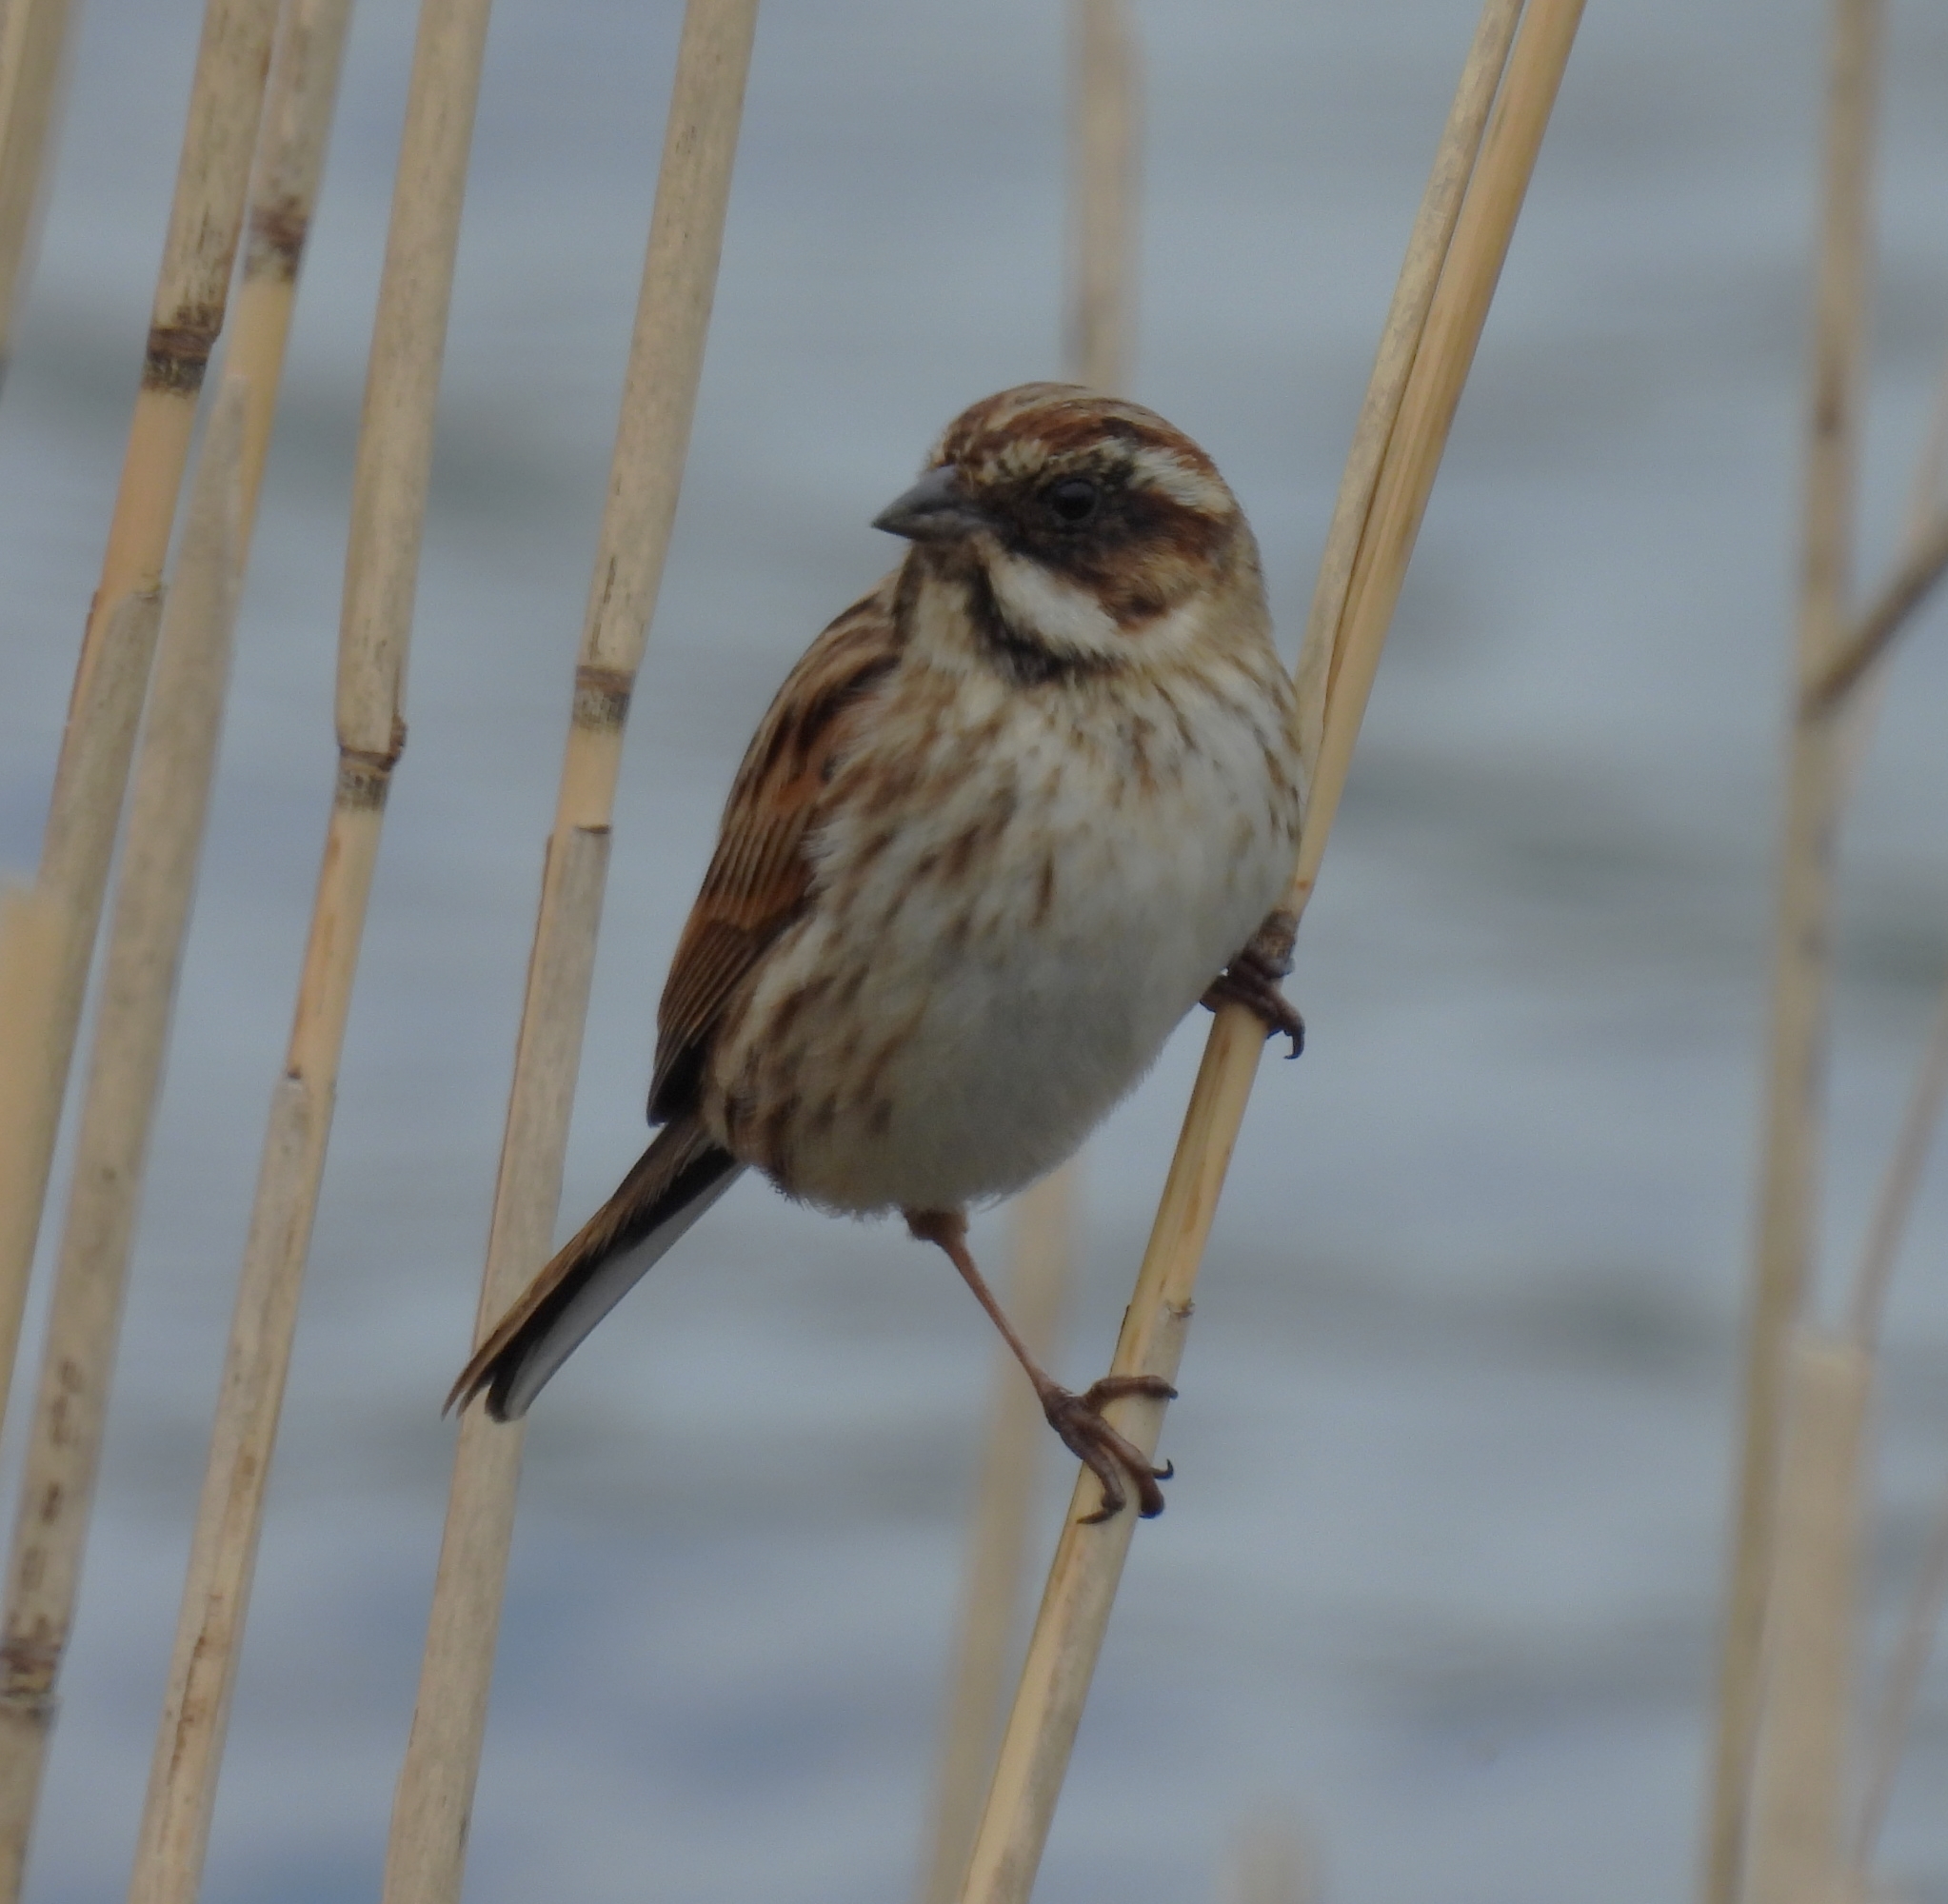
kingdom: Animalia
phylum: Chordata
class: Aves
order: Passeriformes
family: Emberizidae
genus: Emberiza
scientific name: Emberiza schoeniclus
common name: Reed bunting
